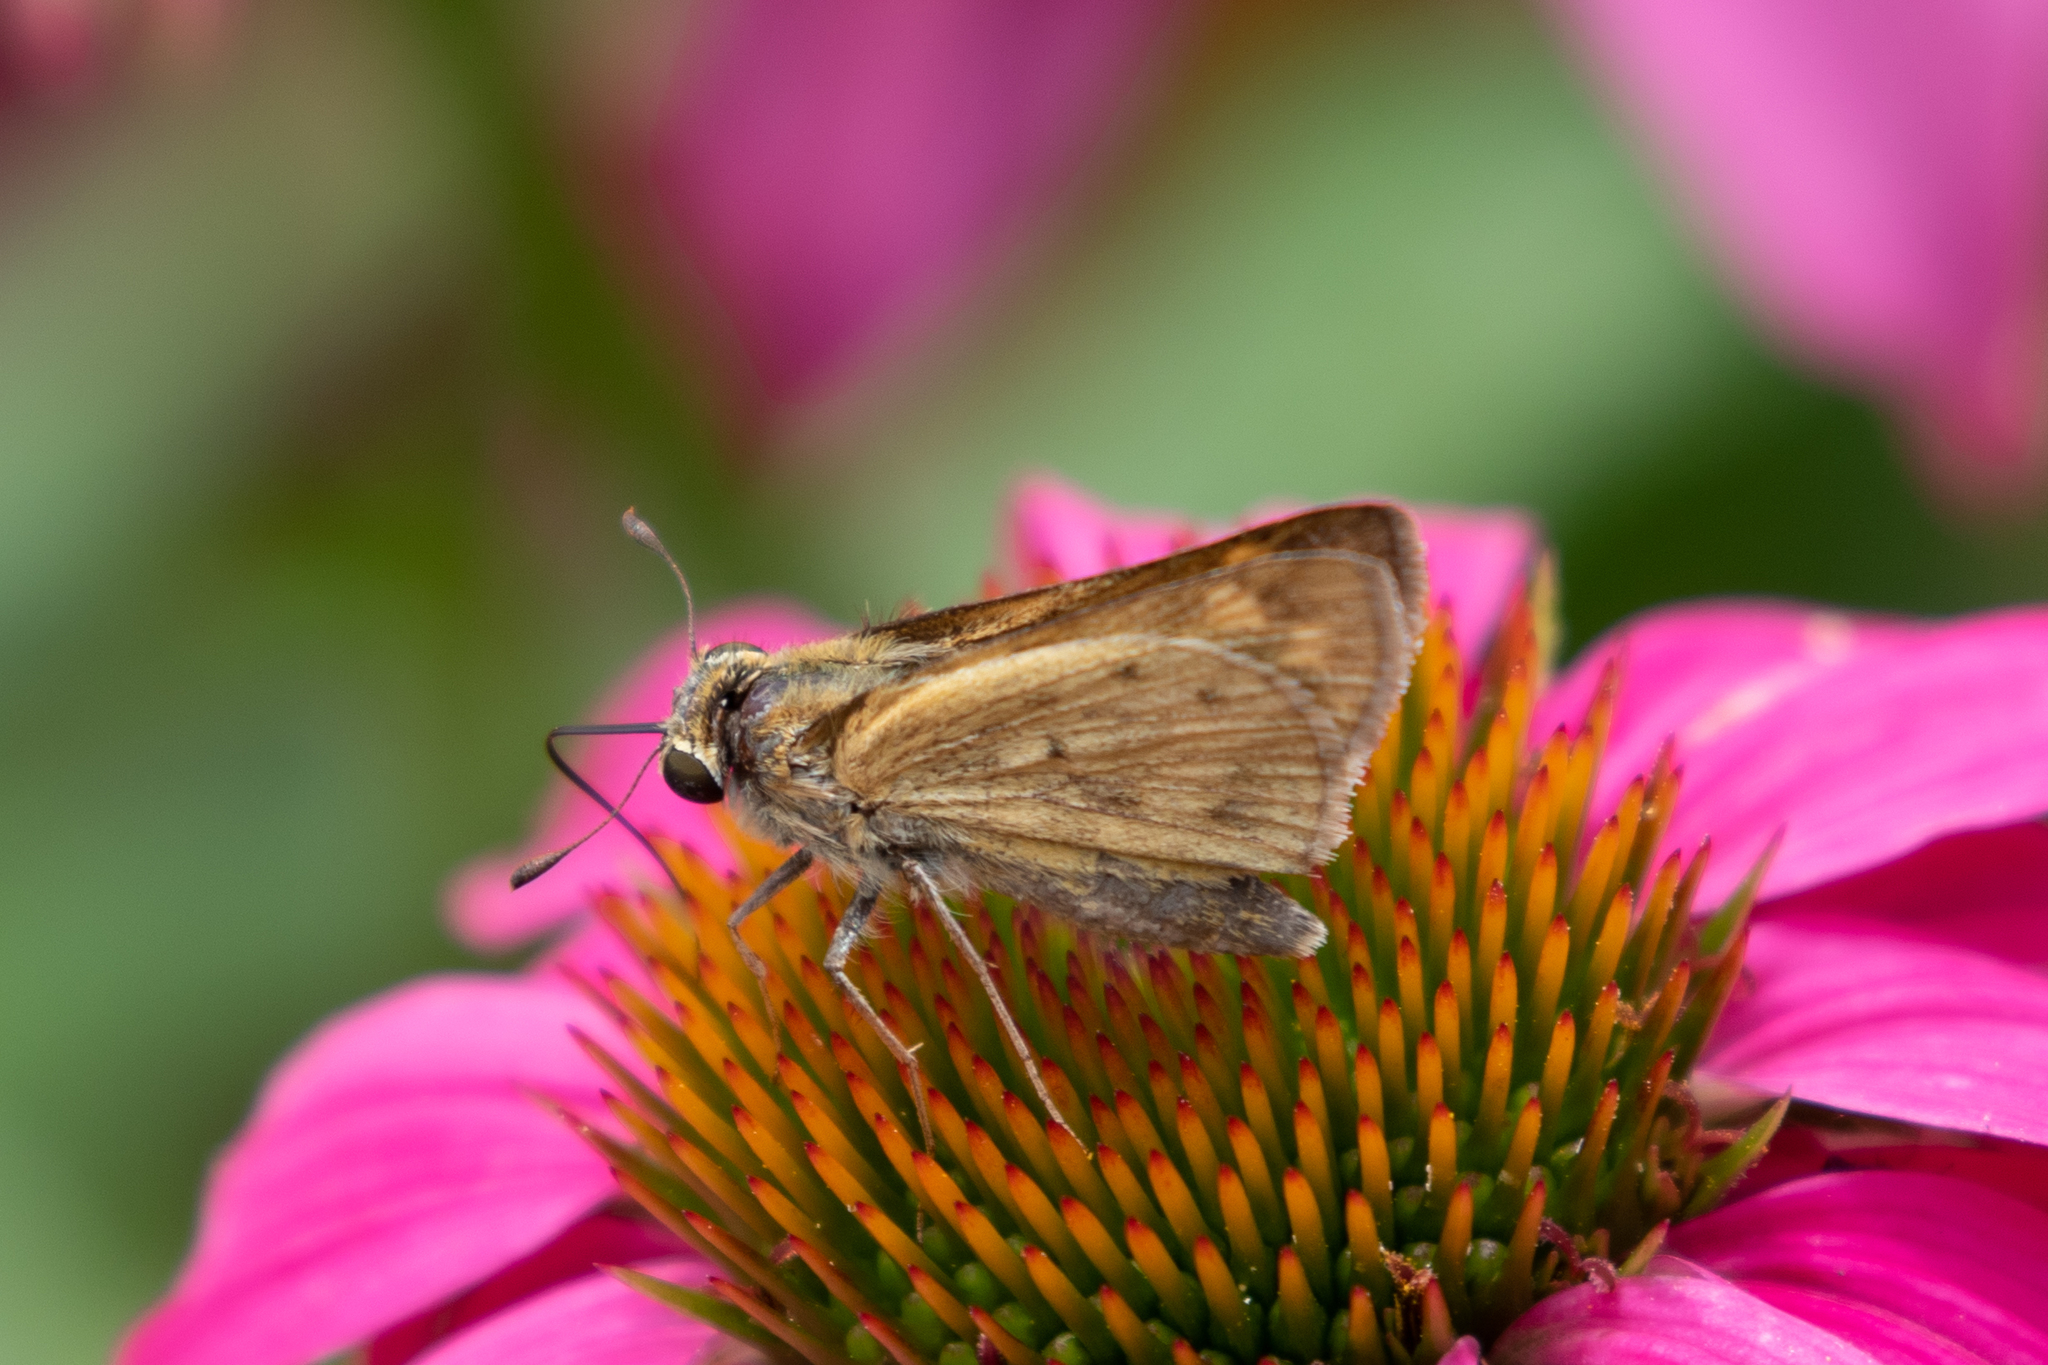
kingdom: Animalia
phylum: Arthropoda
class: Insecta
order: Lepidoptera
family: Hesperiidae
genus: Hylephila
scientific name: Hylephila phyleus
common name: Fiery skipper
